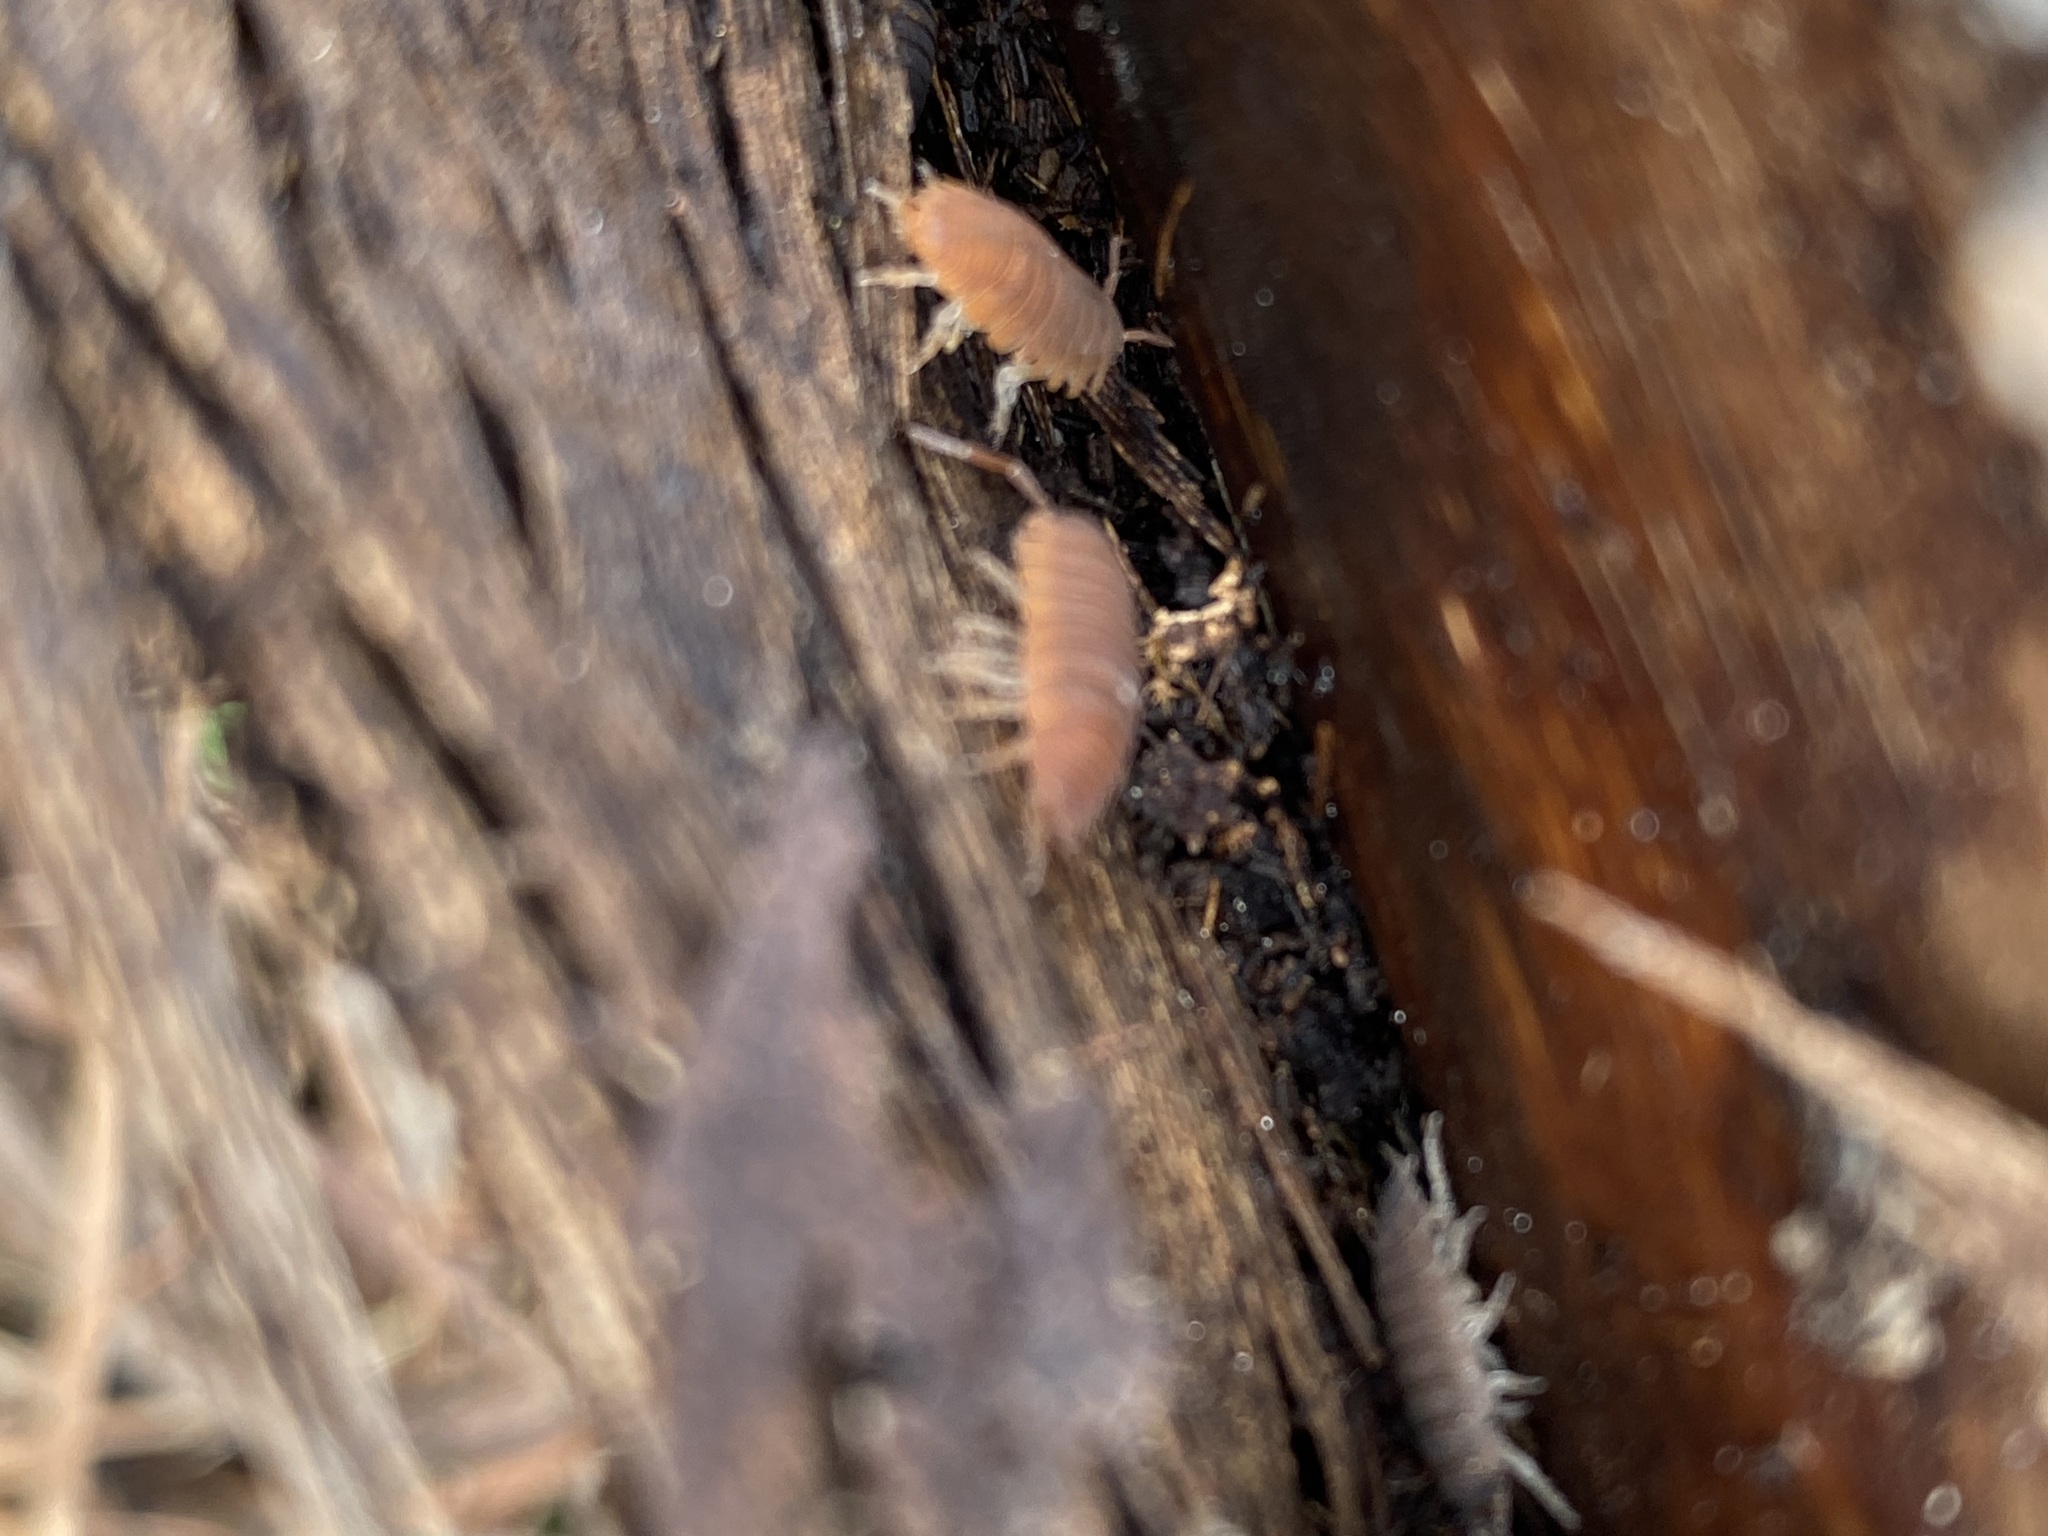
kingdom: Animalia
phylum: Arthropoda
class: Malacostraca
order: Isopoda
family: Porcellionidae
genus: Porcellio
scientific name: Porcellio scaber
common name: Common rough woodlouse
